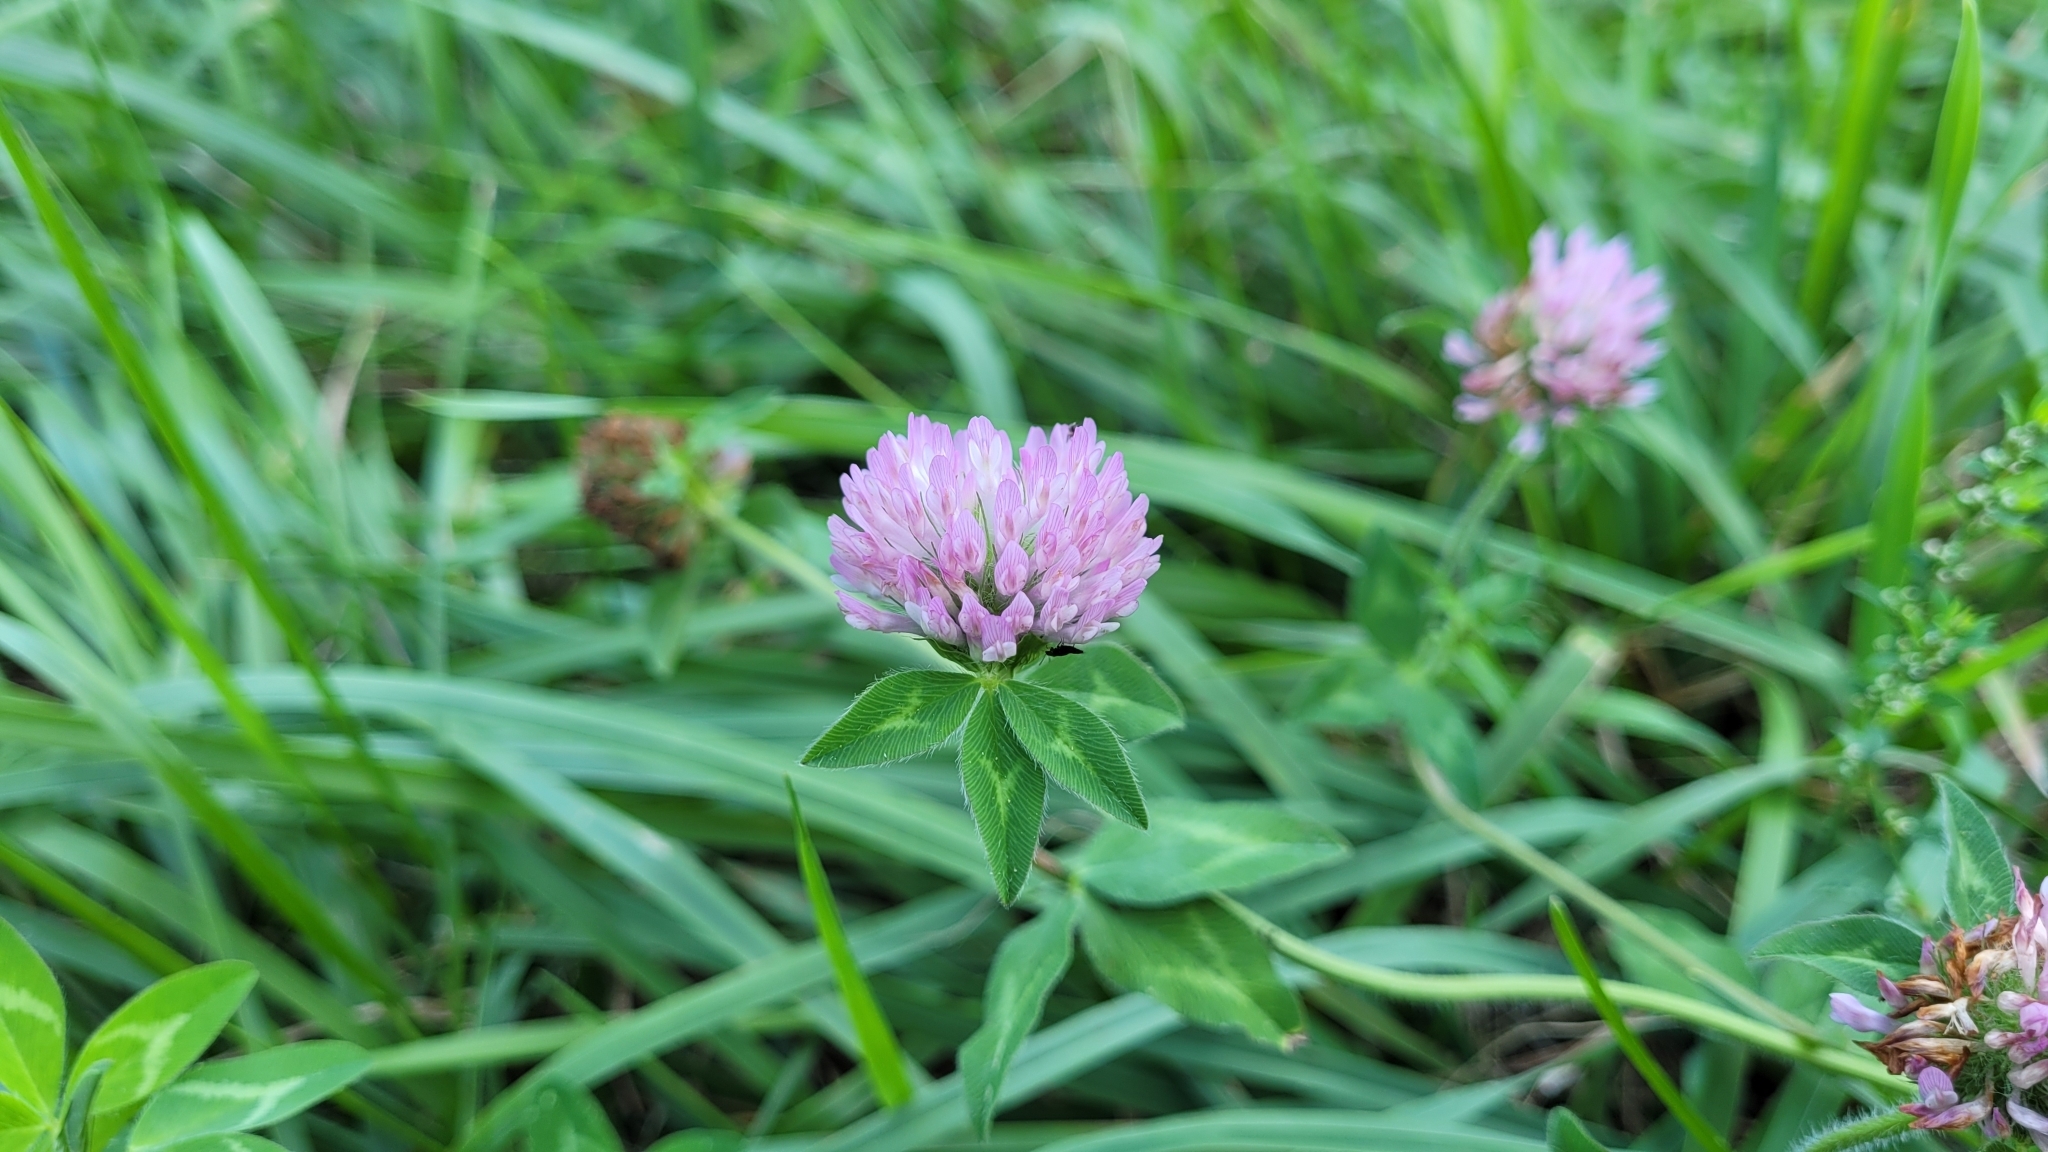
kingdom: Plantae
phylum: Tracheophyta
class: Magnoliopsida
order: Fabales
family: Fabaceae
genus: Trifolium
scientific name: Trifolium pratense
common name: Red clover
